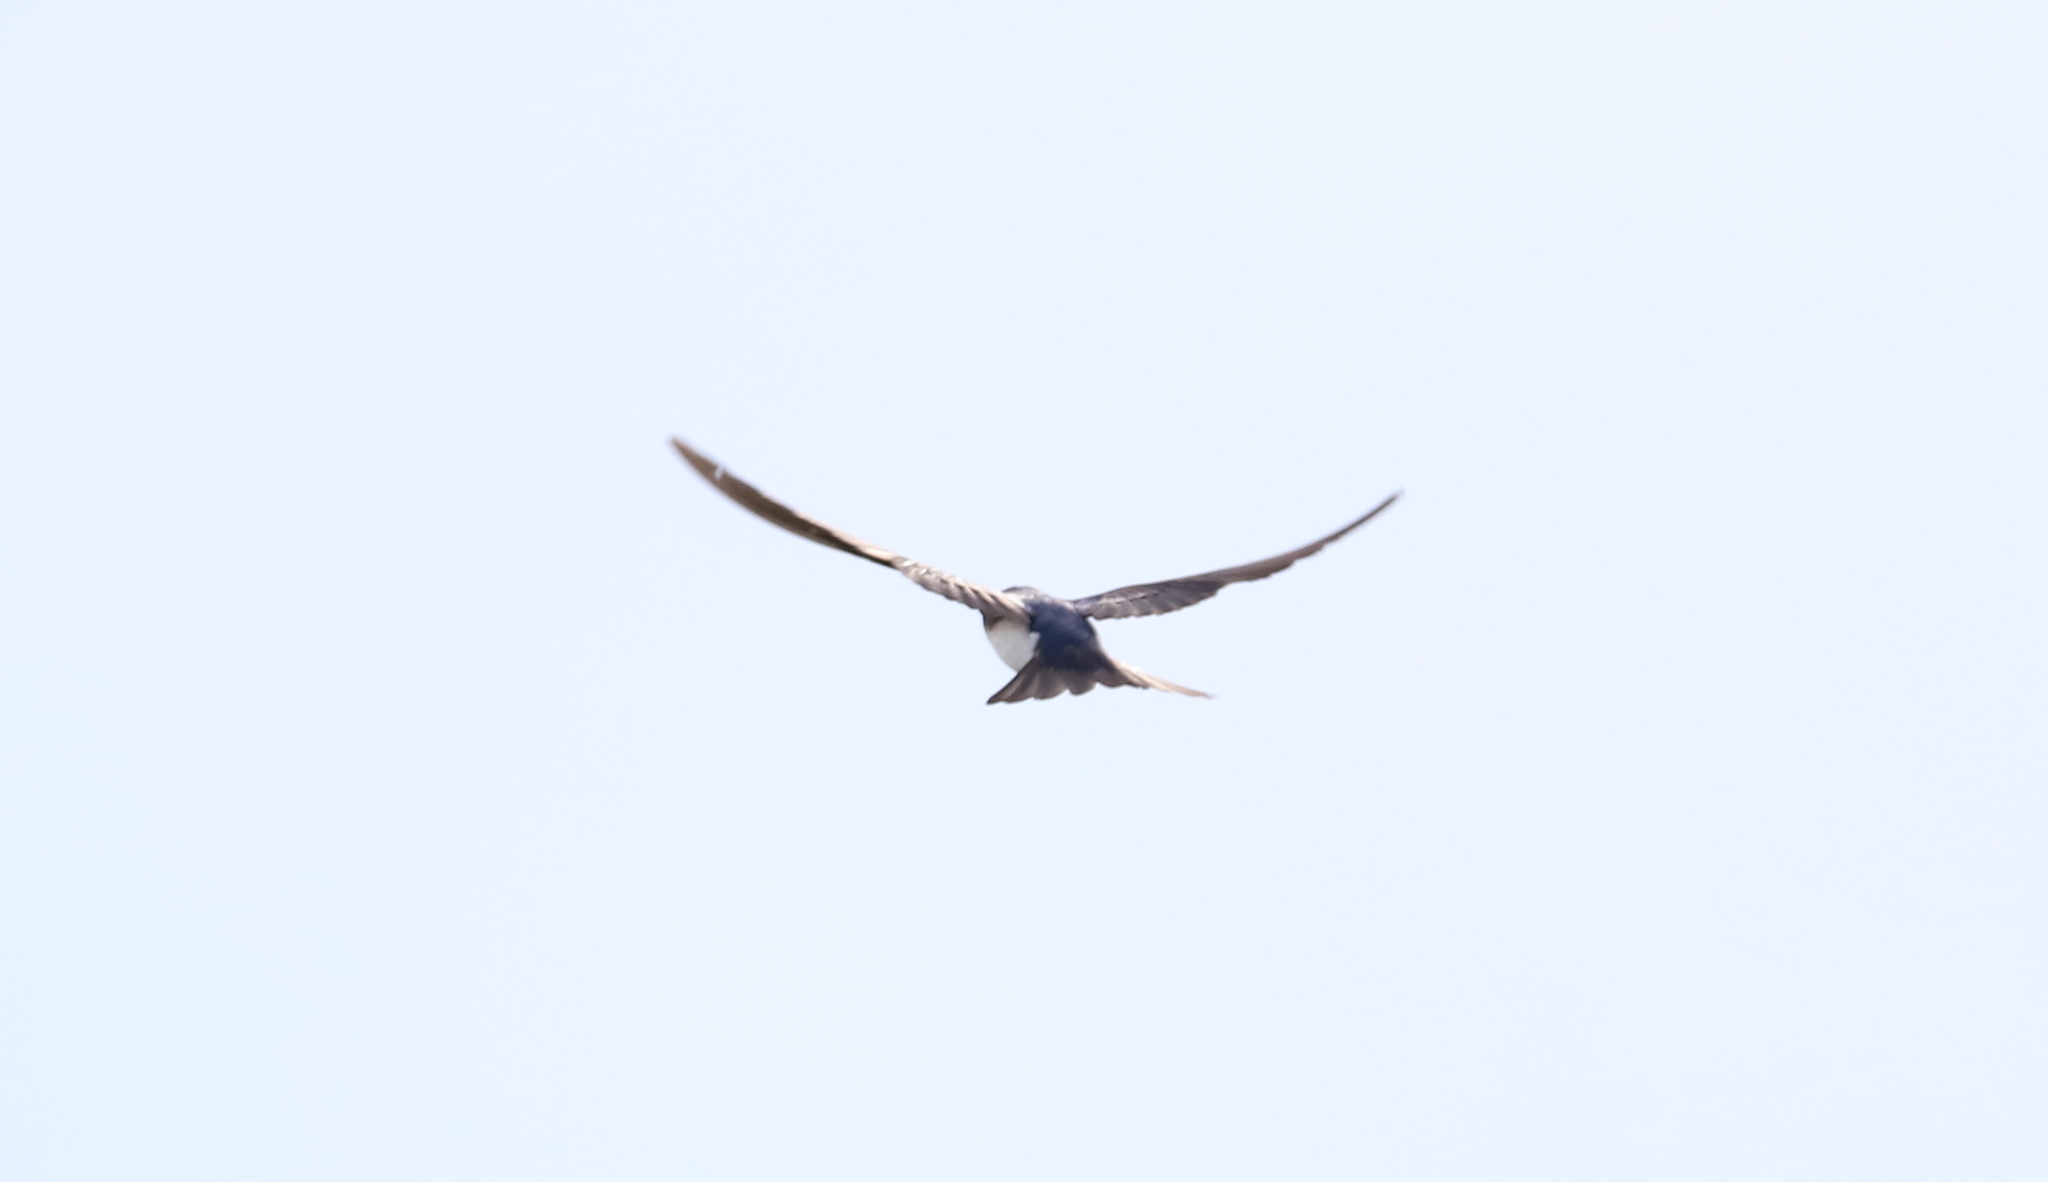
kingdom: Animalia
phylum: Chordata
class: Aves
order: Passeriformes
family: Hirundinidae
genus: Tachycineta
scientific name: Tachycineta bicolor
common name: Tree swallow
